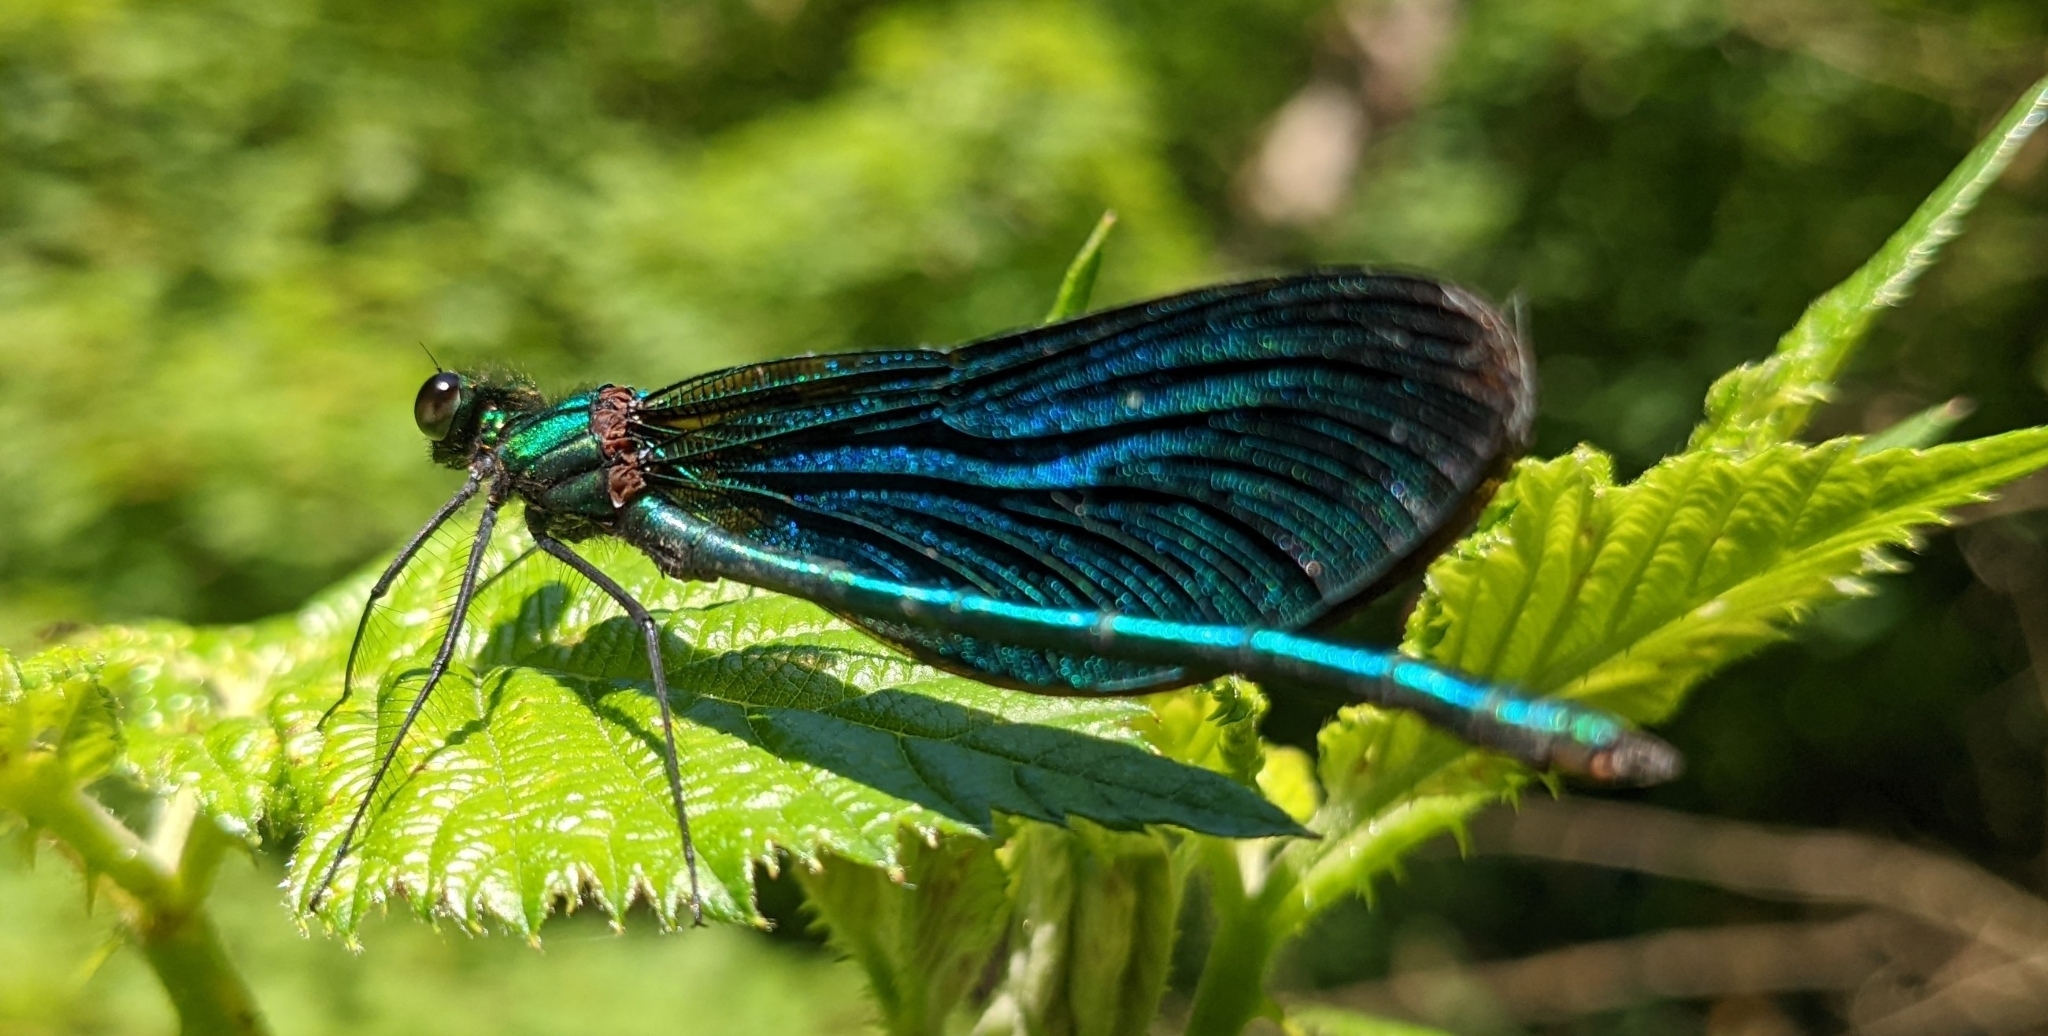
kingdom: Animalia
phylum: Arthropoda
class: Insecta
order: Odonata
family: Calopterygidae
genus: Calopteryx
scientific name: Calopteryx virgo
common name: Beautiful demoiselle
